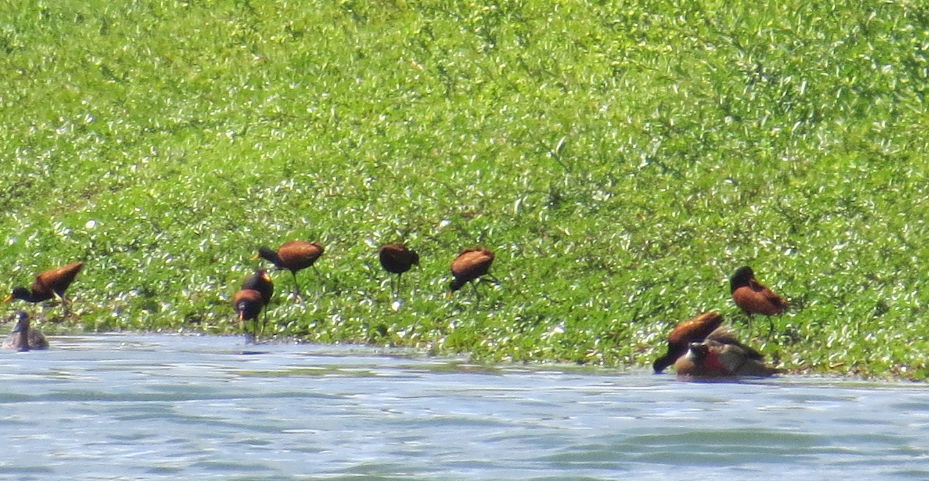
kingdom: Animalia
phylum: Chordata
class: Aves
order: Charadriiformes
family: Jacanidae
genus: Jacana
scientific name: Jacana jacana
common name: Wattled jacana
